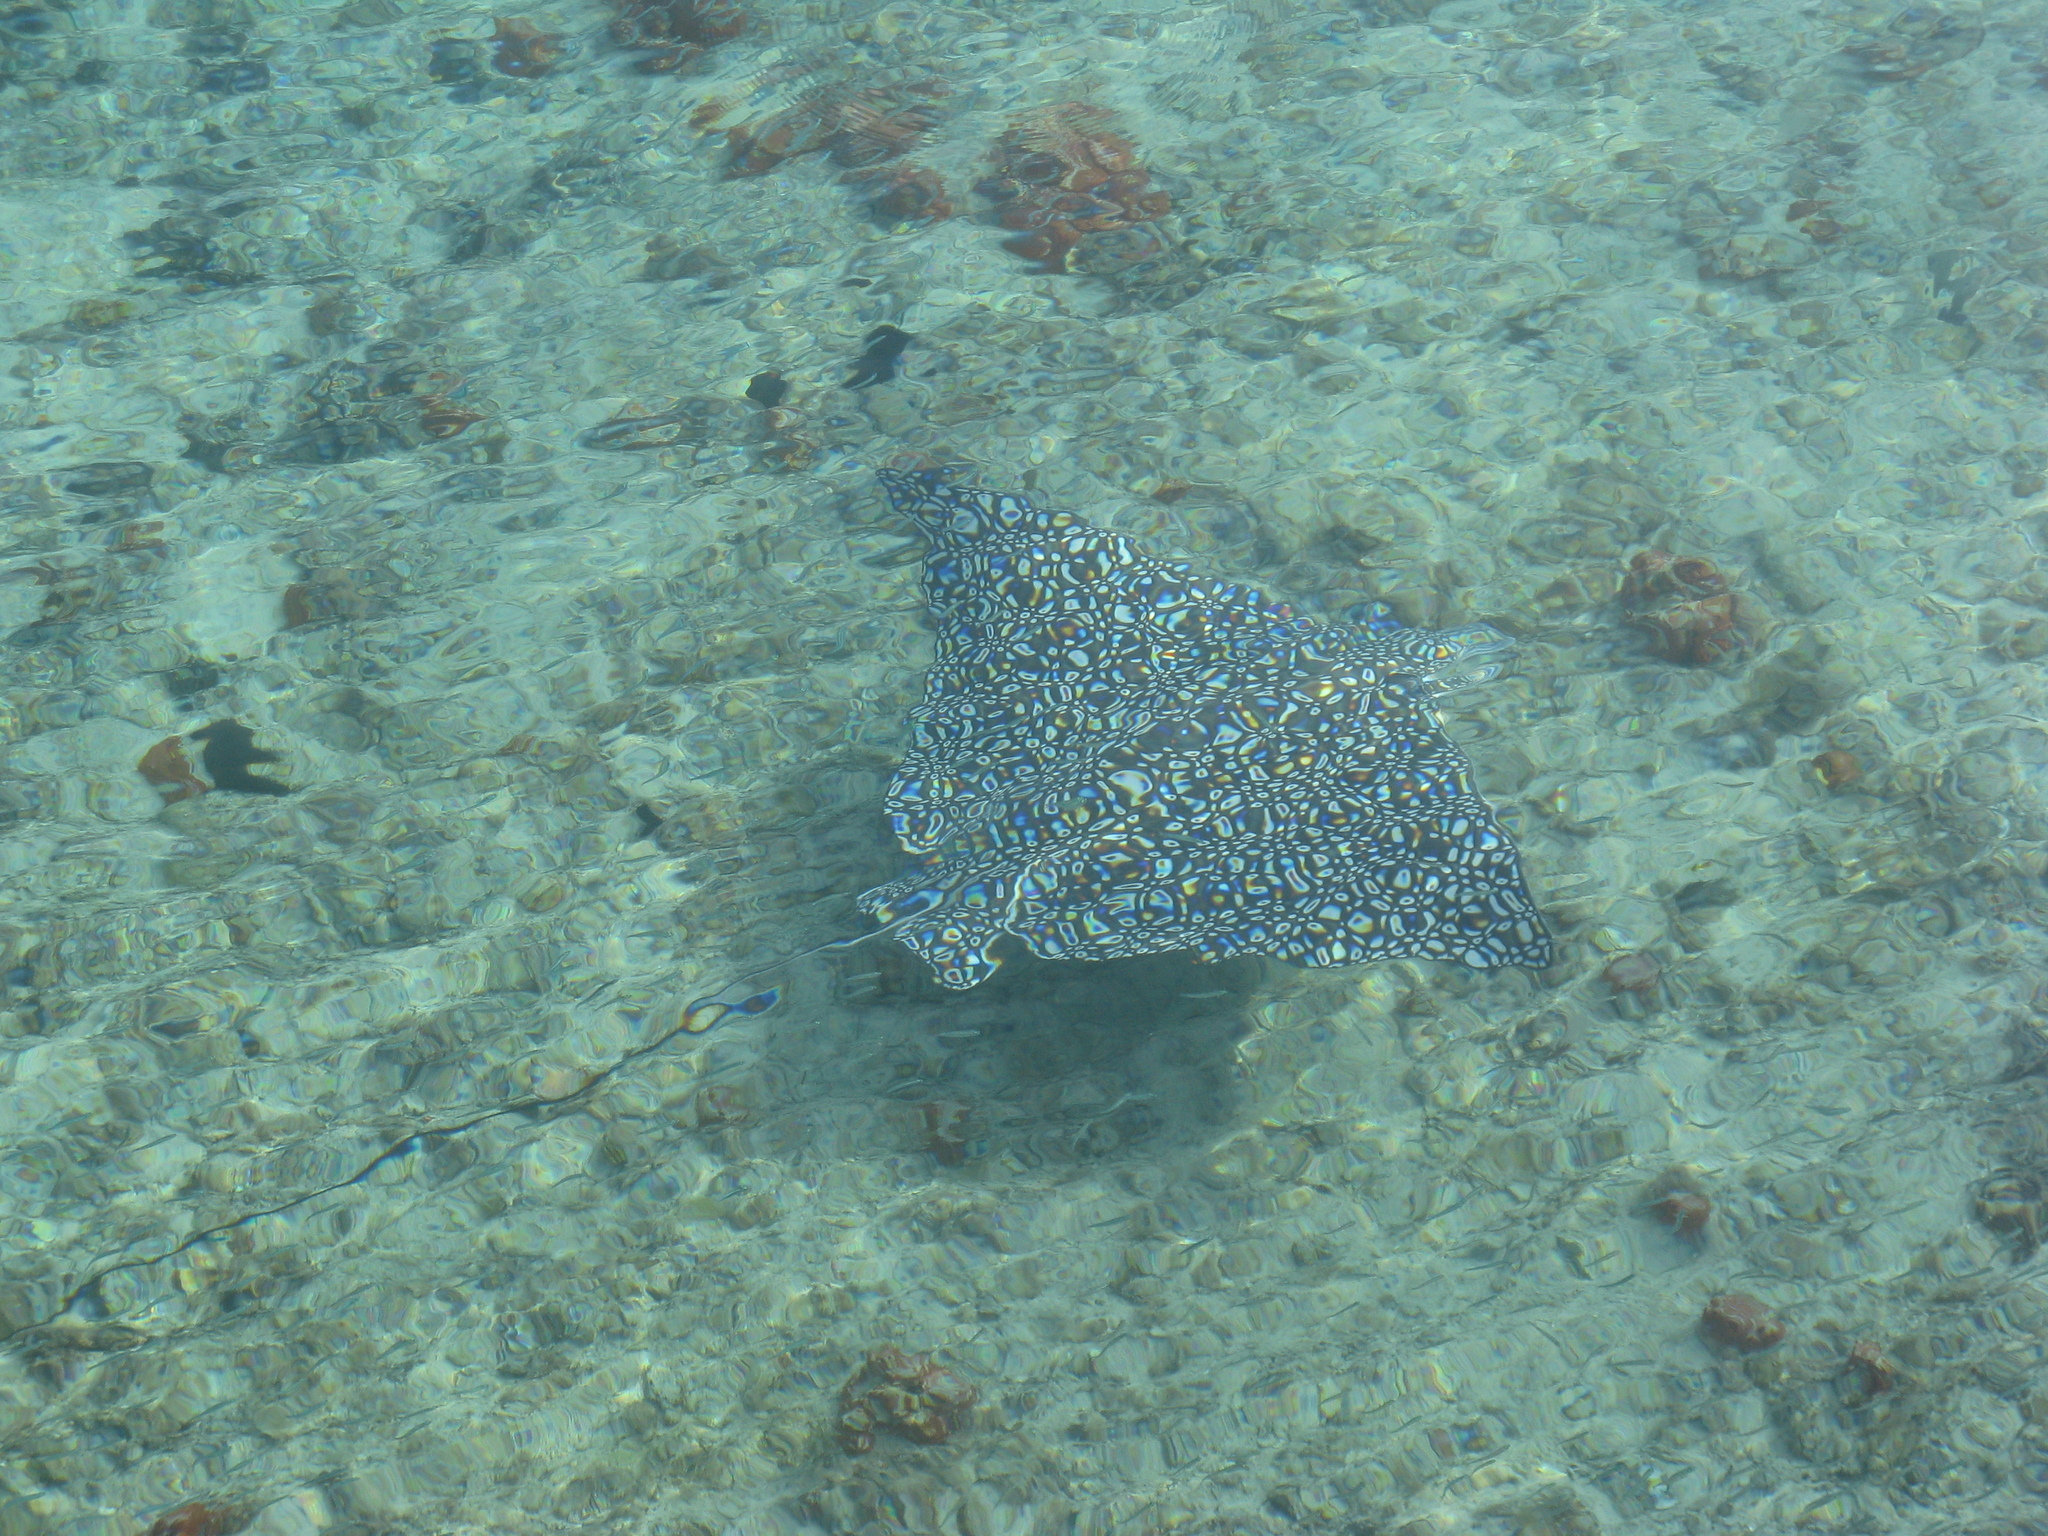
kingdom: Animalia
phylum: Chordata
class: Elasmobranchii
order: Myliobatiformes
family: Myliobatidae
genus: Aetobatus
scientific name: Aetobatus narinari
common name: Spotted eagle ray
